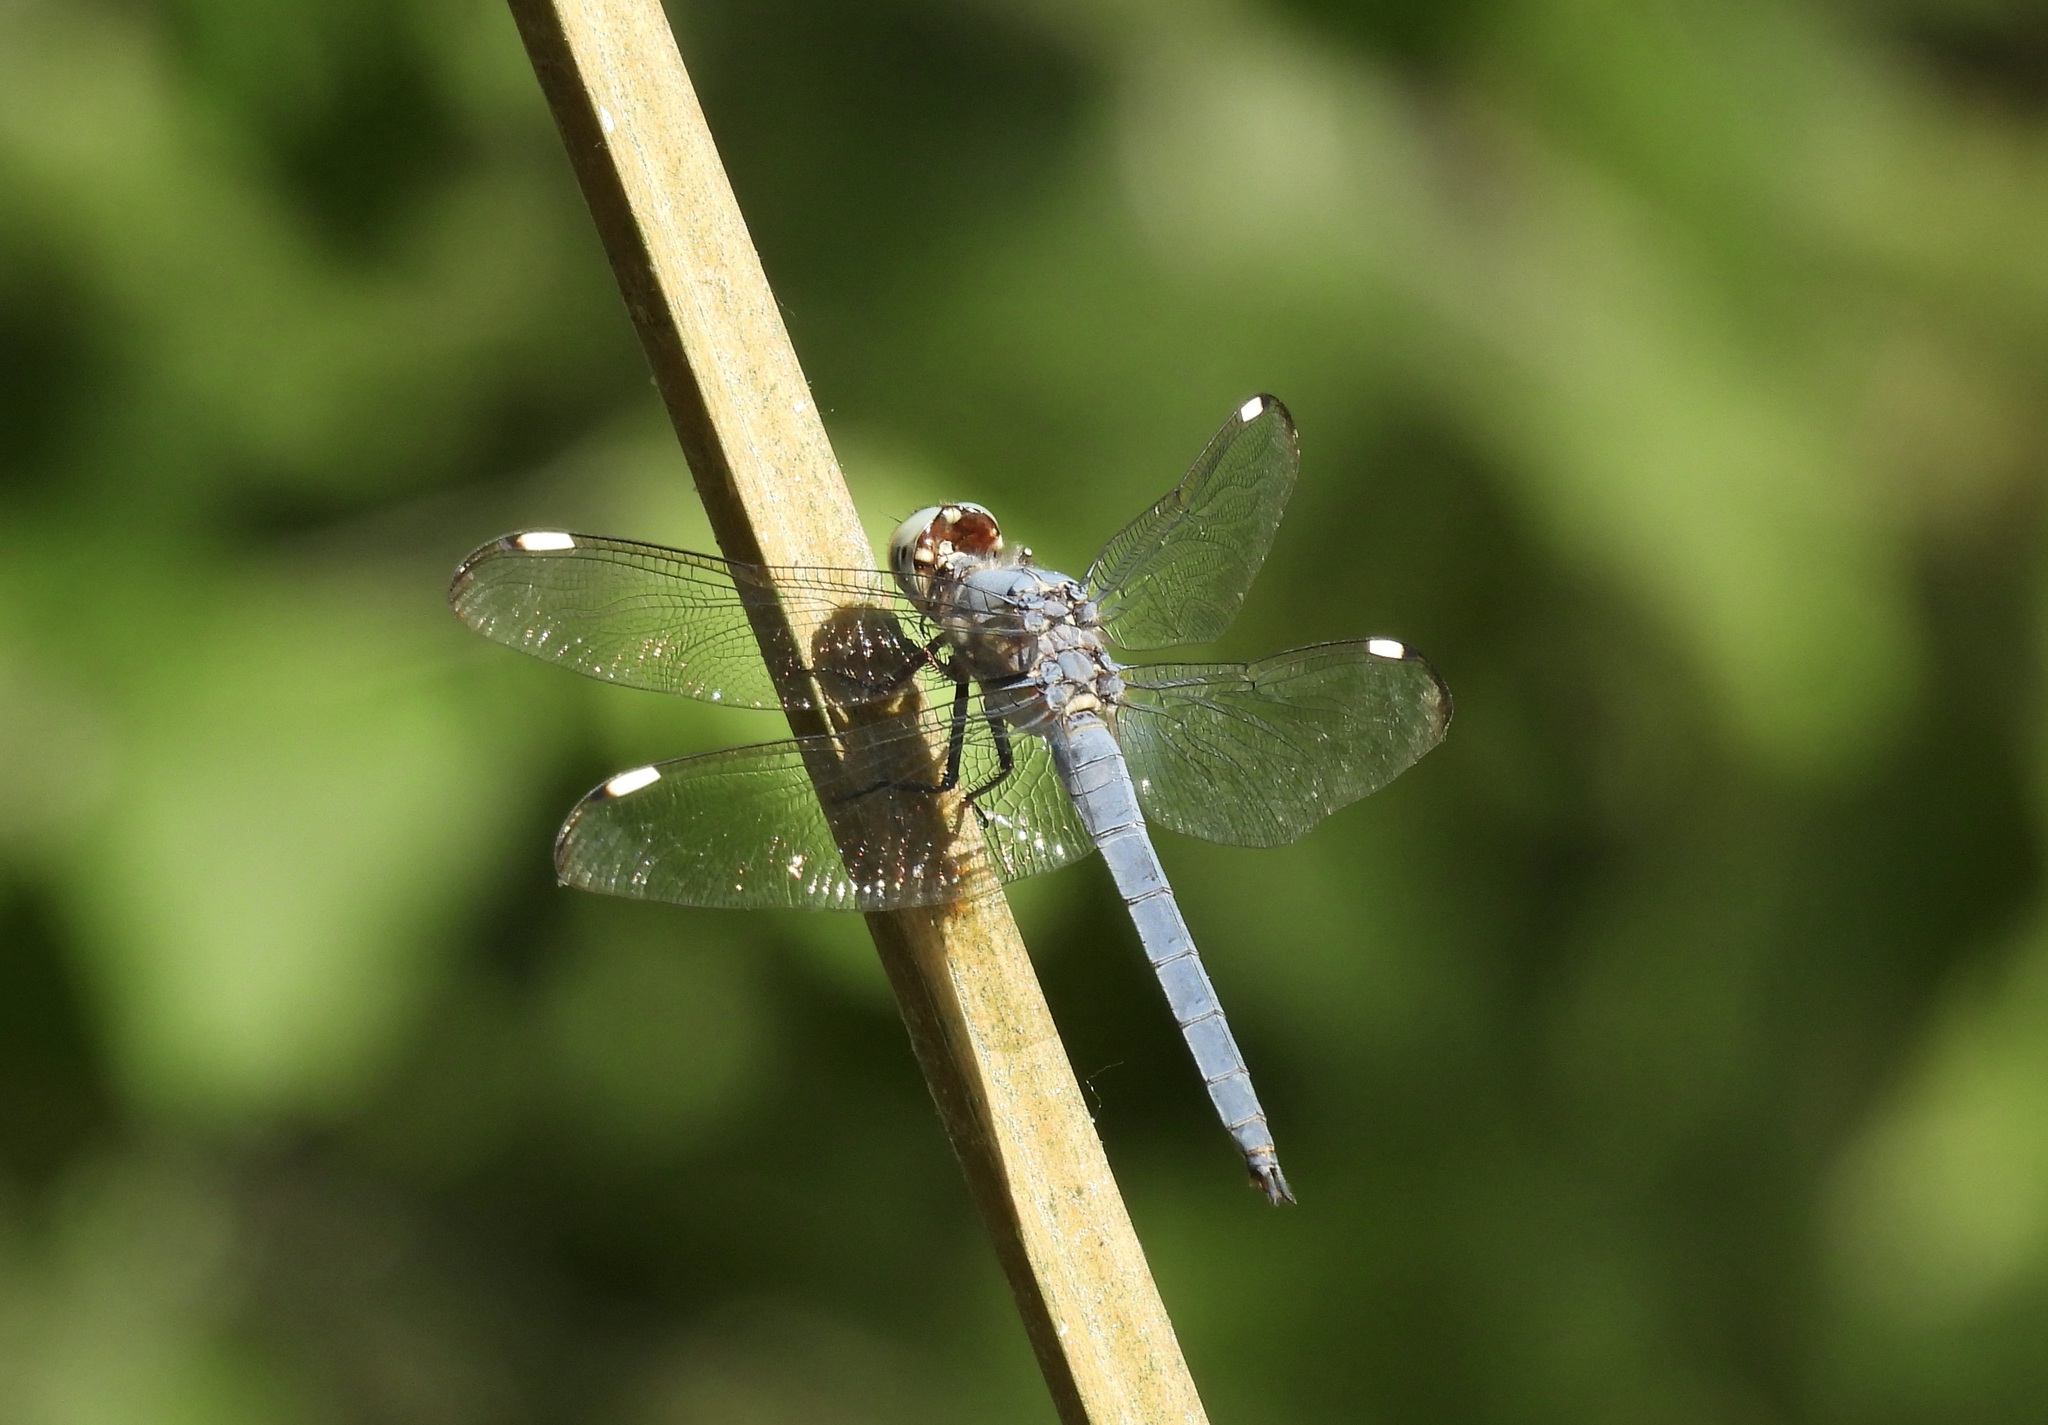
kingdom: Animalia
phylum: Arthropoda
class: Insecta
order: Odonata
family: Libellulidae
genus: Libellula
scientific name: Libellula comanche
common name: Comanche skimmer
